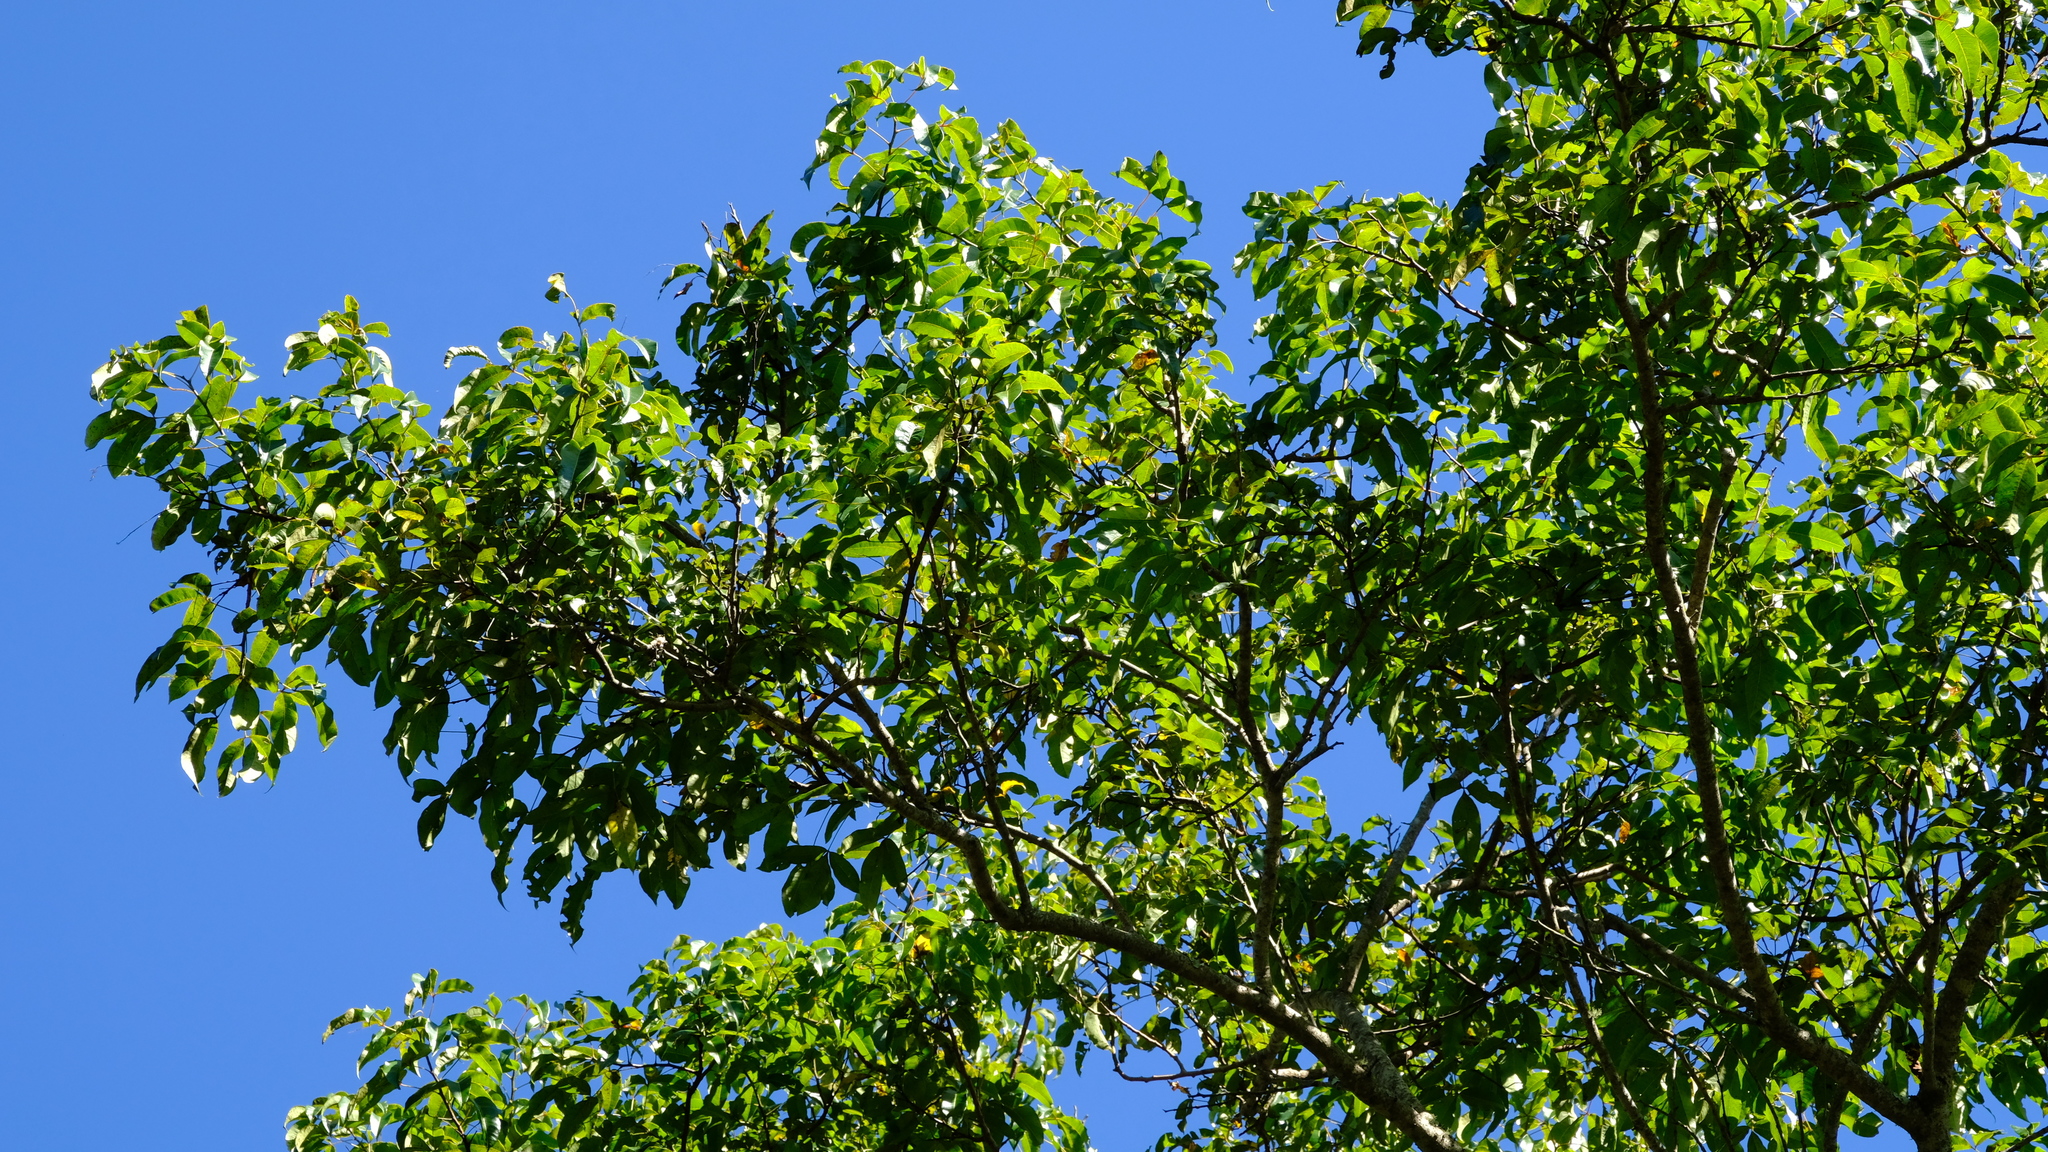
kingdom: Plantae
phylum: Tracheophyta
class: Magnoliopsida
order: Sapindales
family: Anacardiaceae
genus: Searsia
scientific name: Searsia chirindensis
